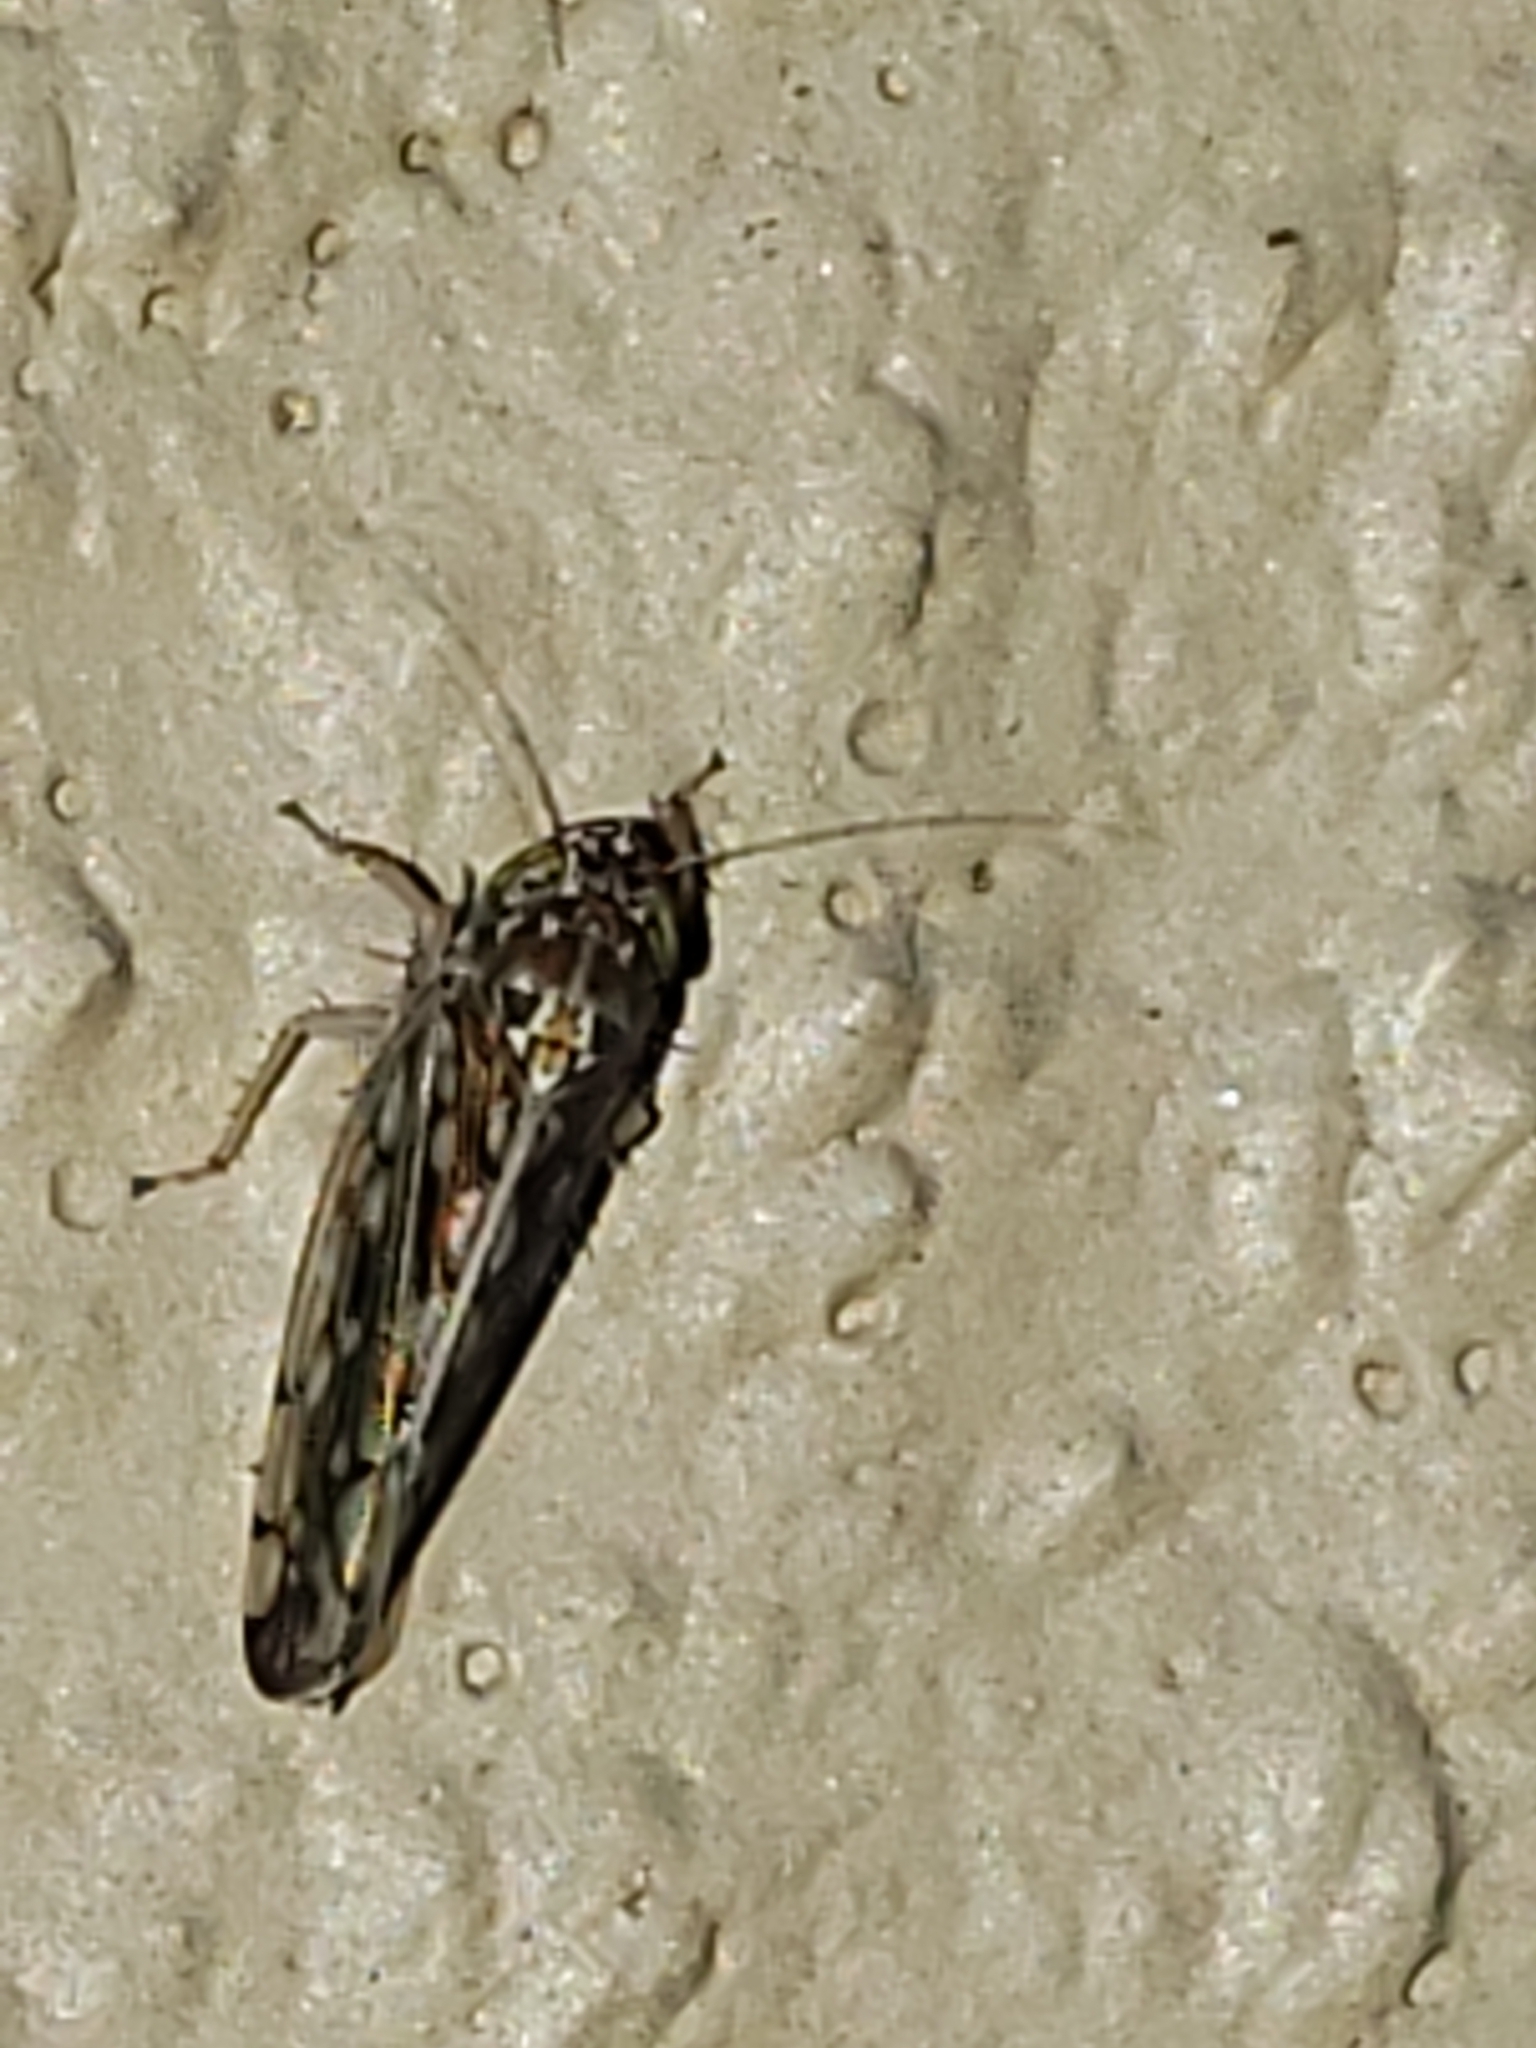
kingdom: Animalia
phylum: Arthropoda
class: Insecta
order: Hemiptera
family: Cicadellidae
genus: Osbornellus
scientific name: Osbornellus clarus
